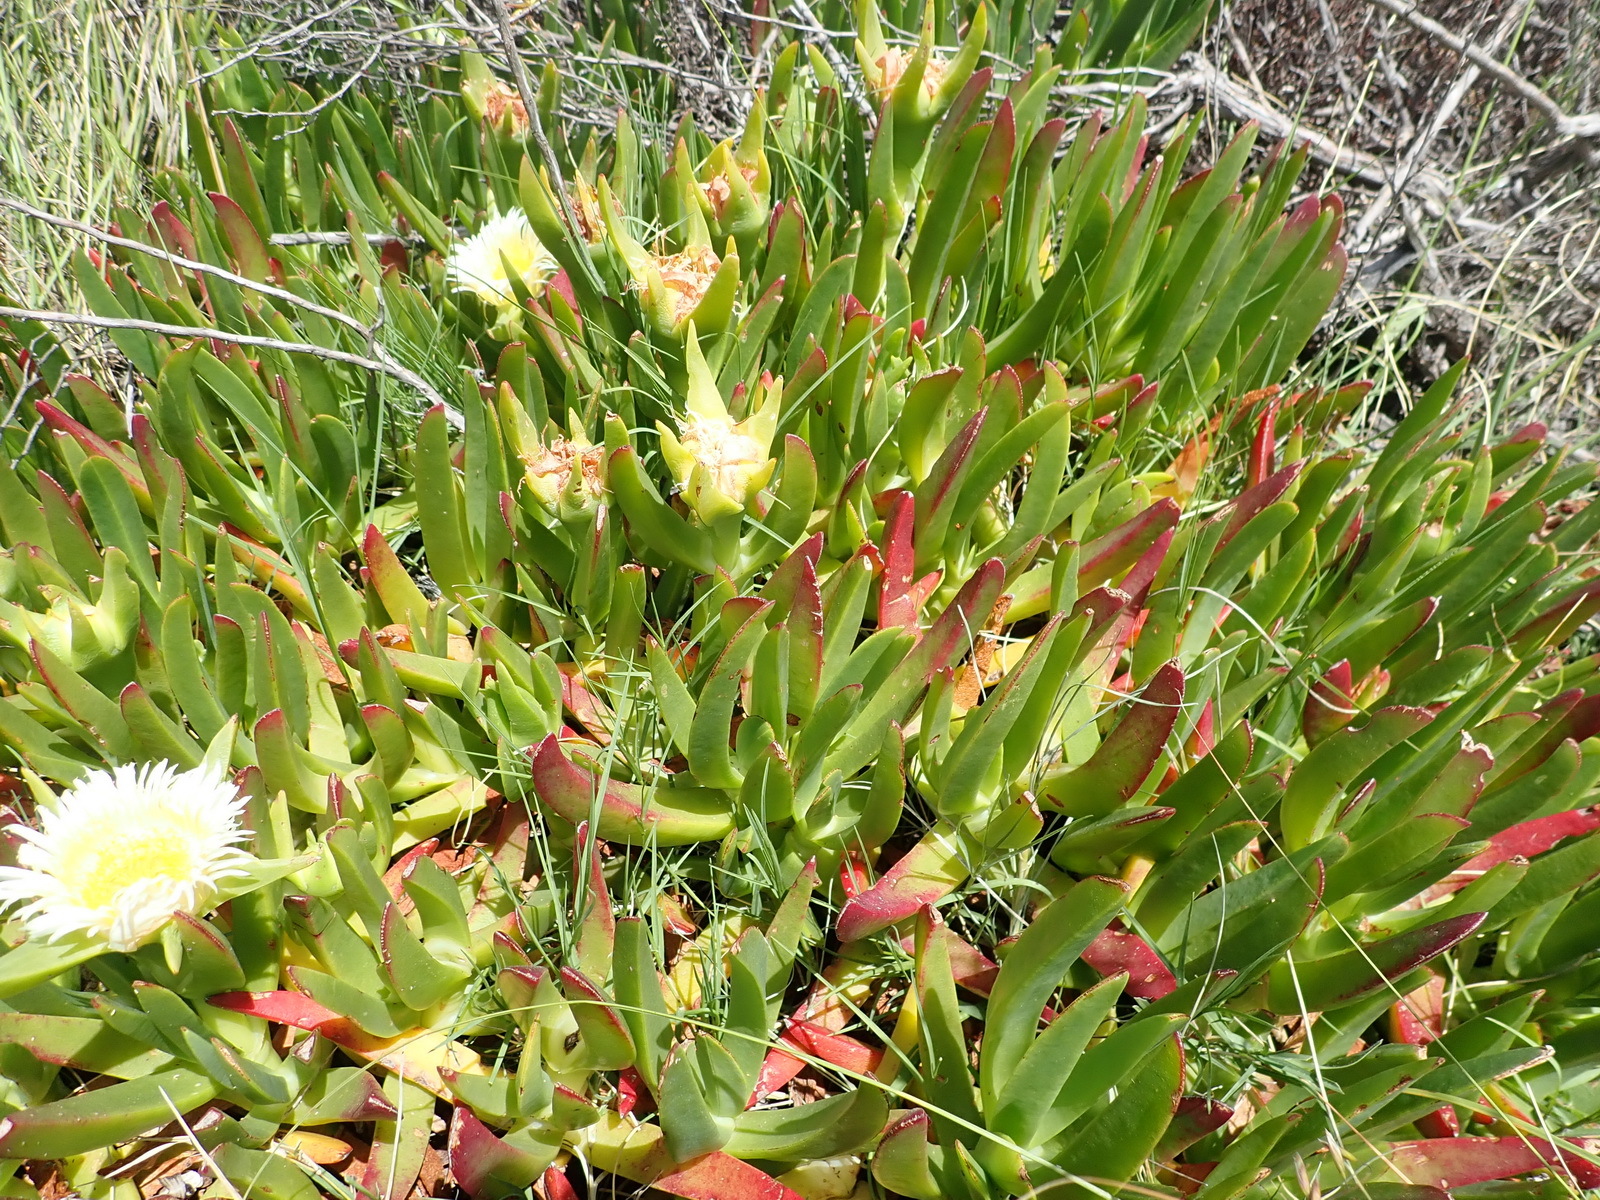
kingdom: Plantae
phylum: Tracheophyta
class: Magnoliopsida
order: Caryophyllales
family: Aizoaceae
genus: Carpobrotus
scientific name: Carpobrotus edulis
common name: Hottentot-fig
